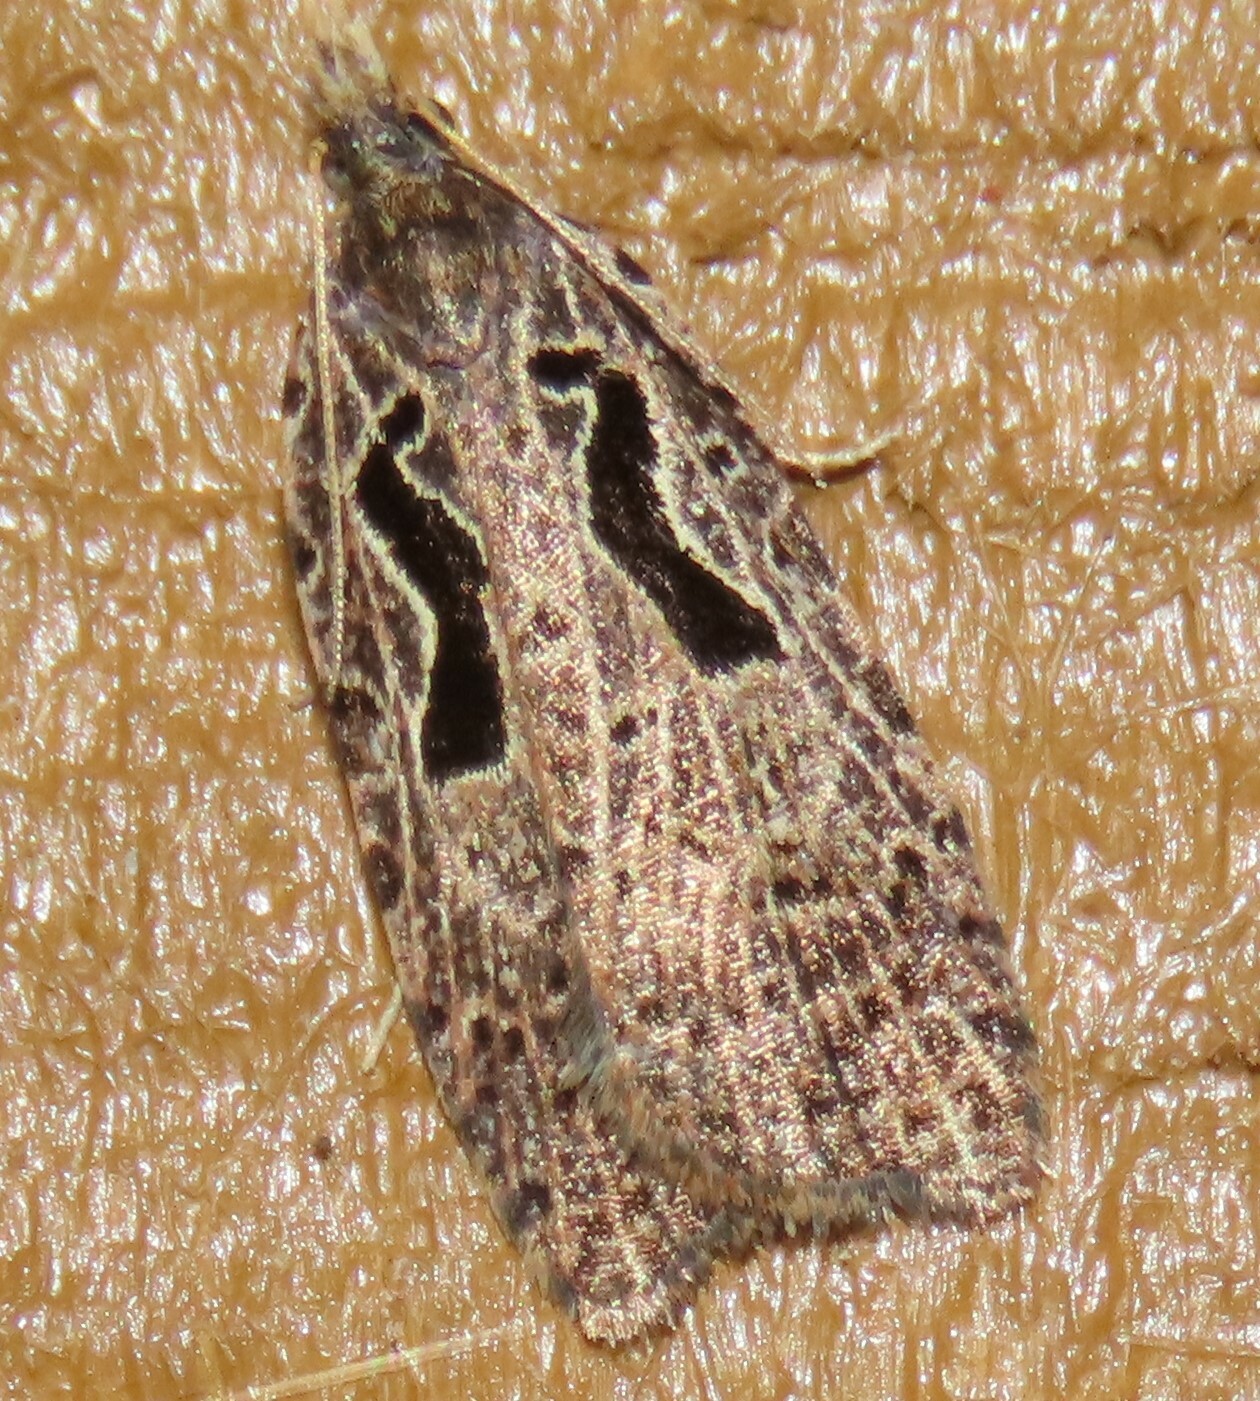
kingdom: Animalia
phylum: Arthropoda
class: Insecta
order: Lepidoptera
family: Tortricidae
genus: Cnephasia
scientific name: Cnephasia jactatana
